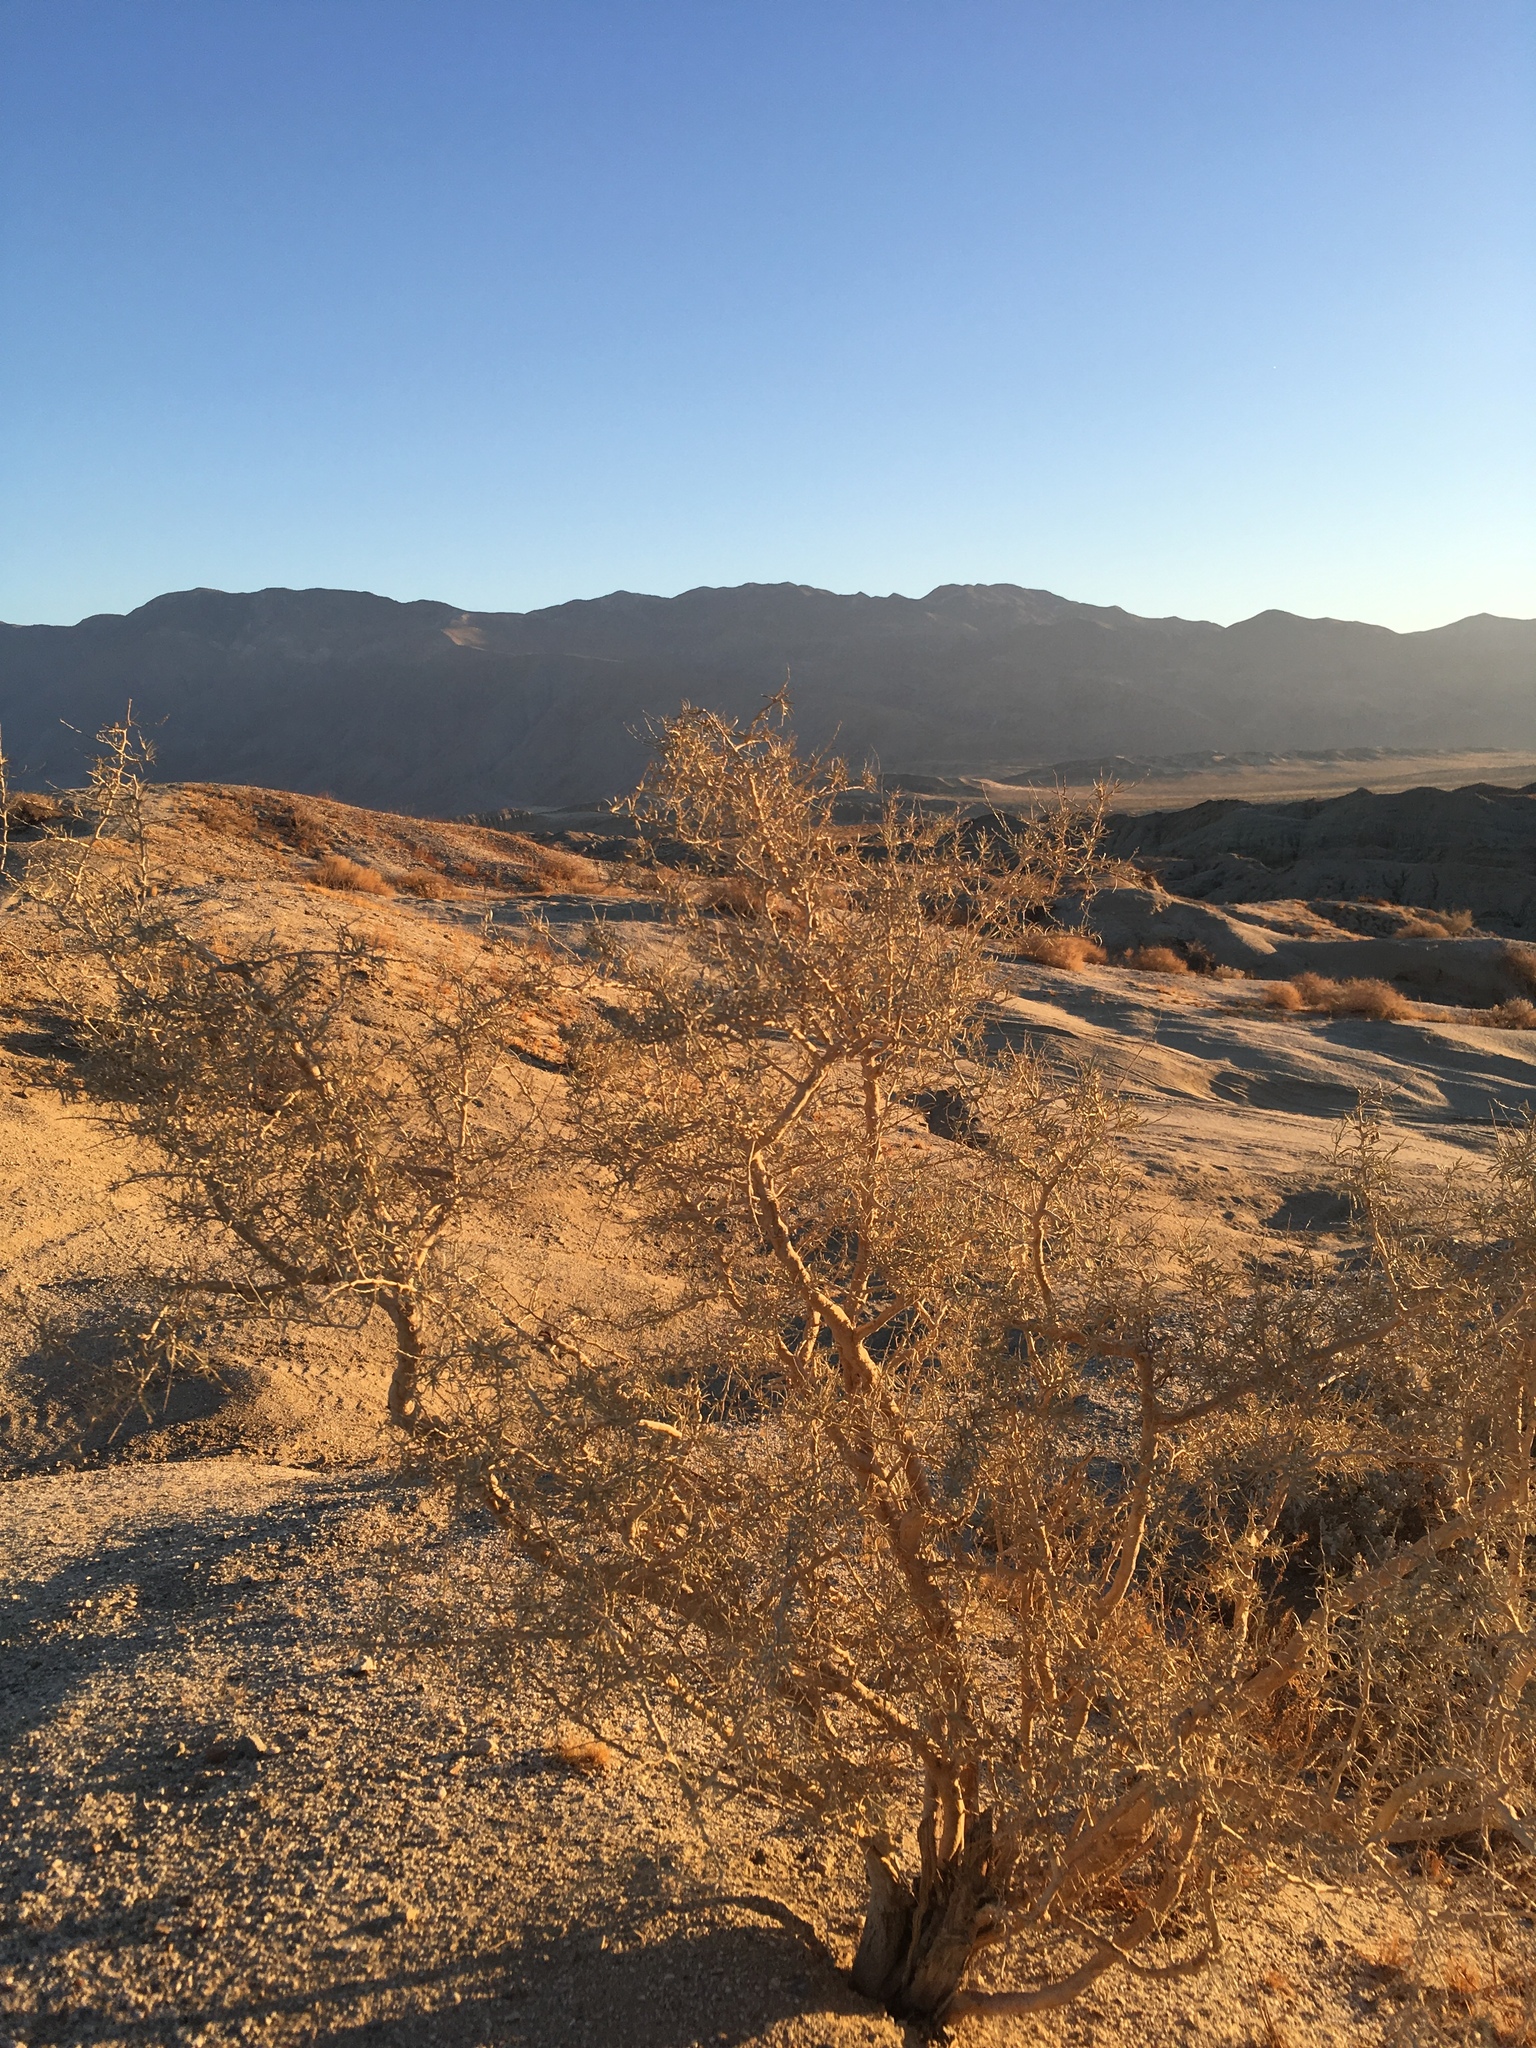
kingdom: Plantae
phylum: Tracheophyta
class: Magnoliopsida
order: Fabales
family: Fabaceae
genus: Psorothamnus
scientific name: Psorothamnus schottii
